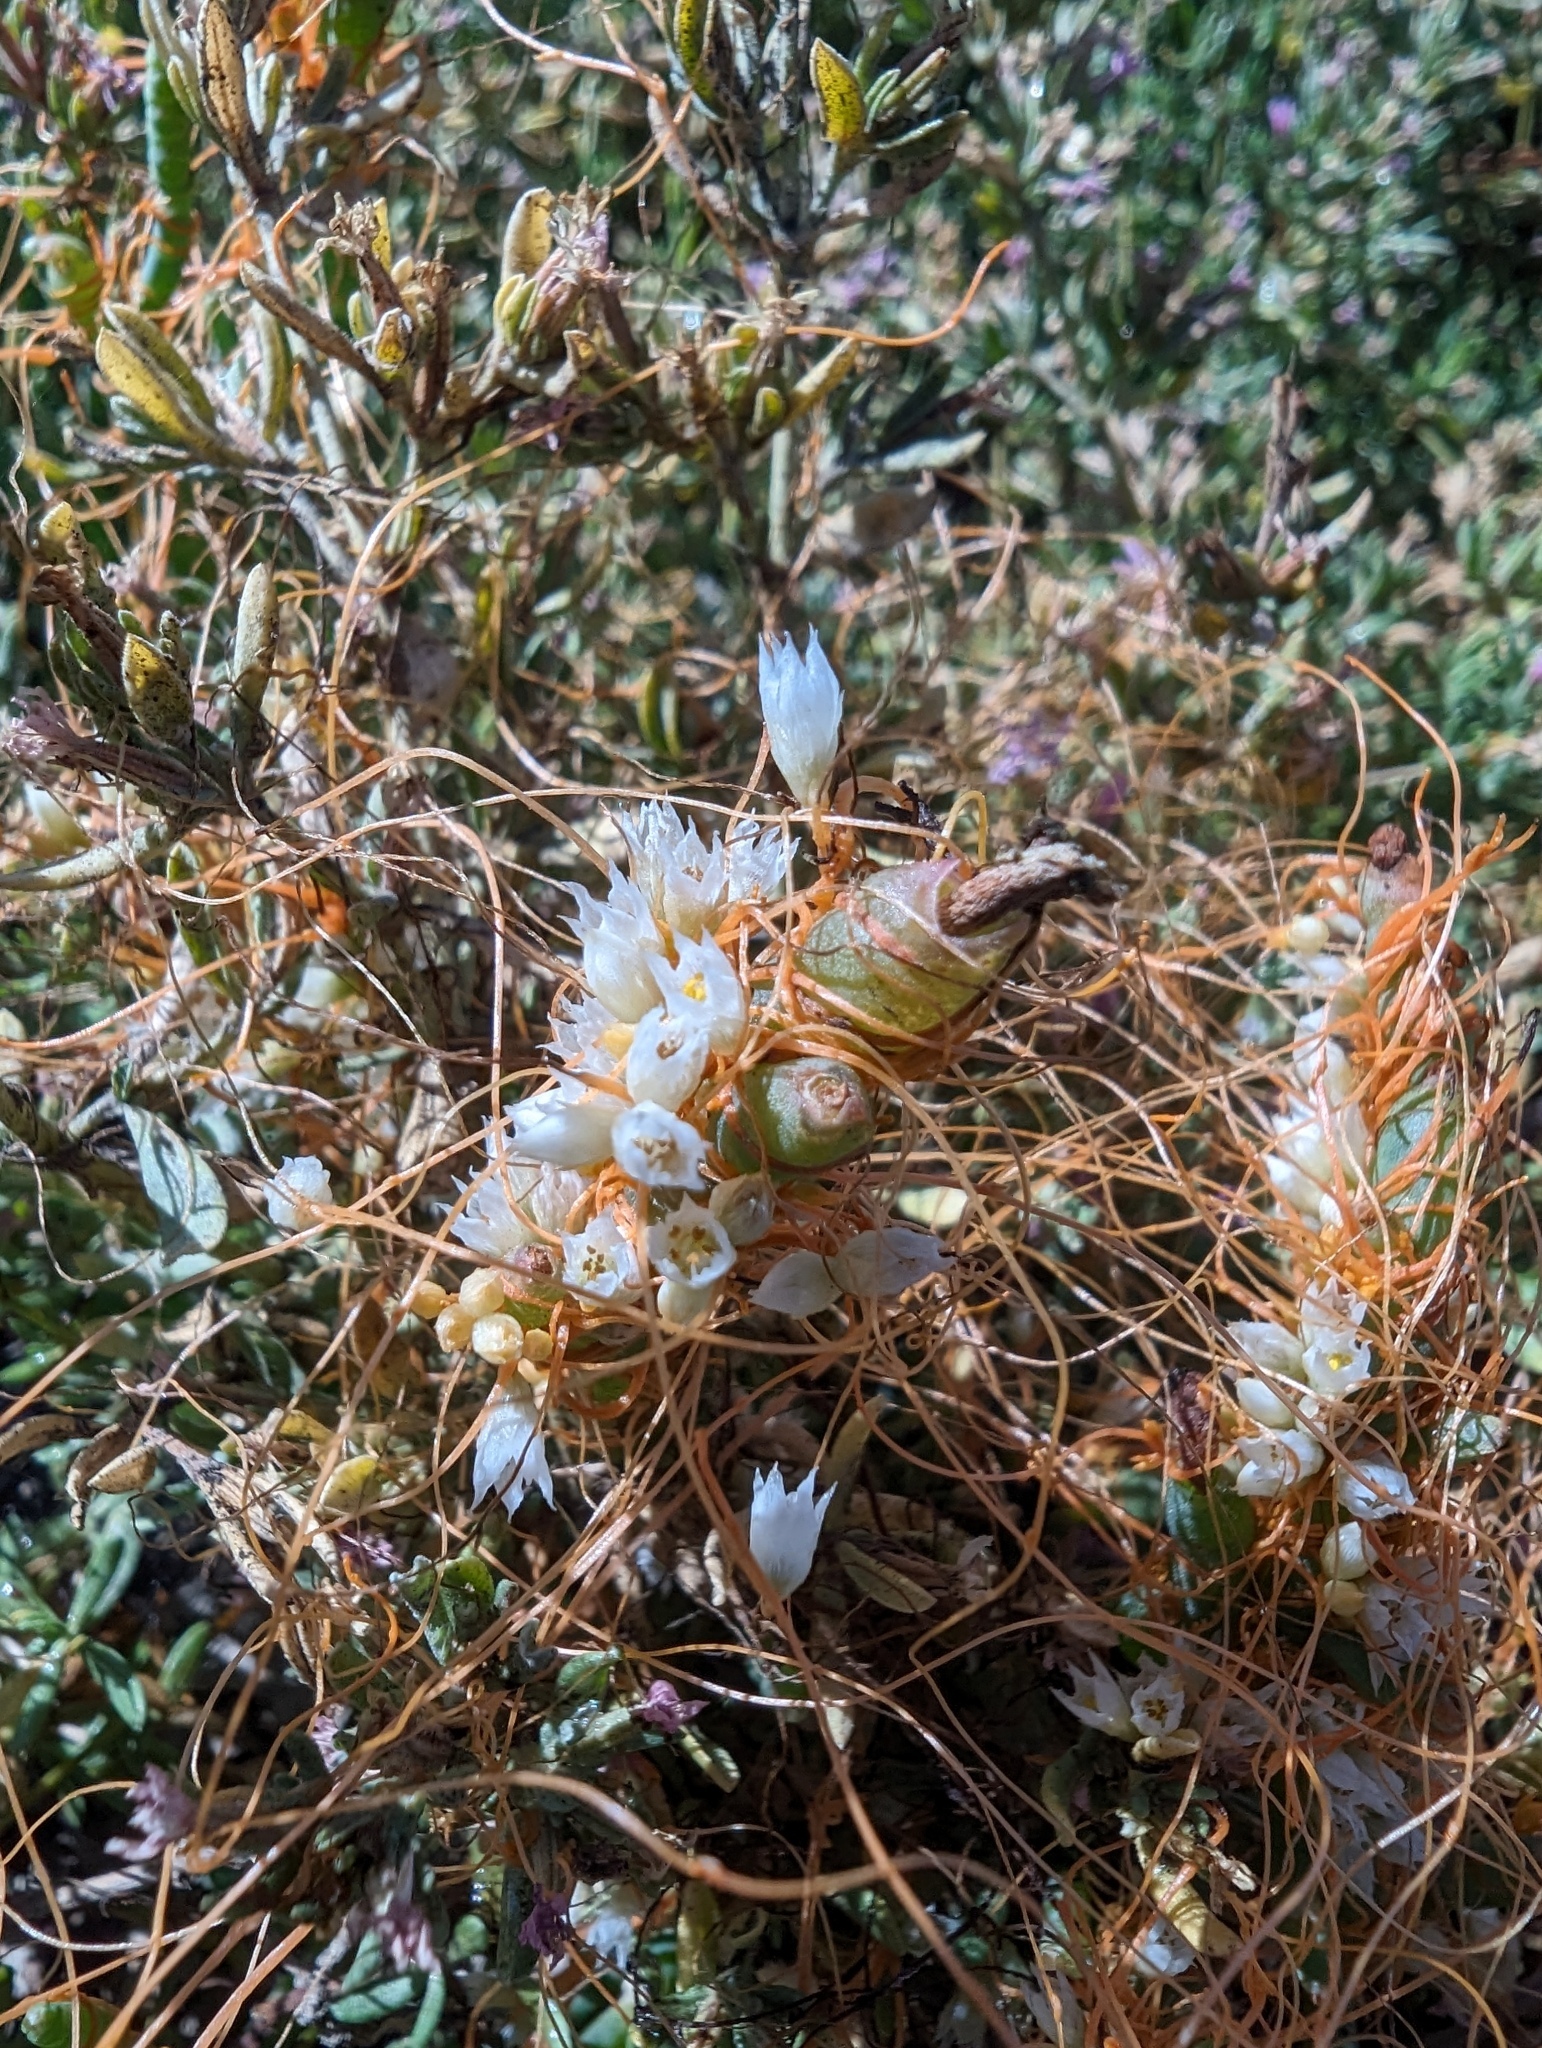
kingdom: Plantae
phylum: Tracheophyta
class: Magnoliopsida
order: Solanales
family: Convolvulaceae
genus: Cuscuta
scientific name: Cuscuta pacifica
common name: Large saltmarsh dodder
